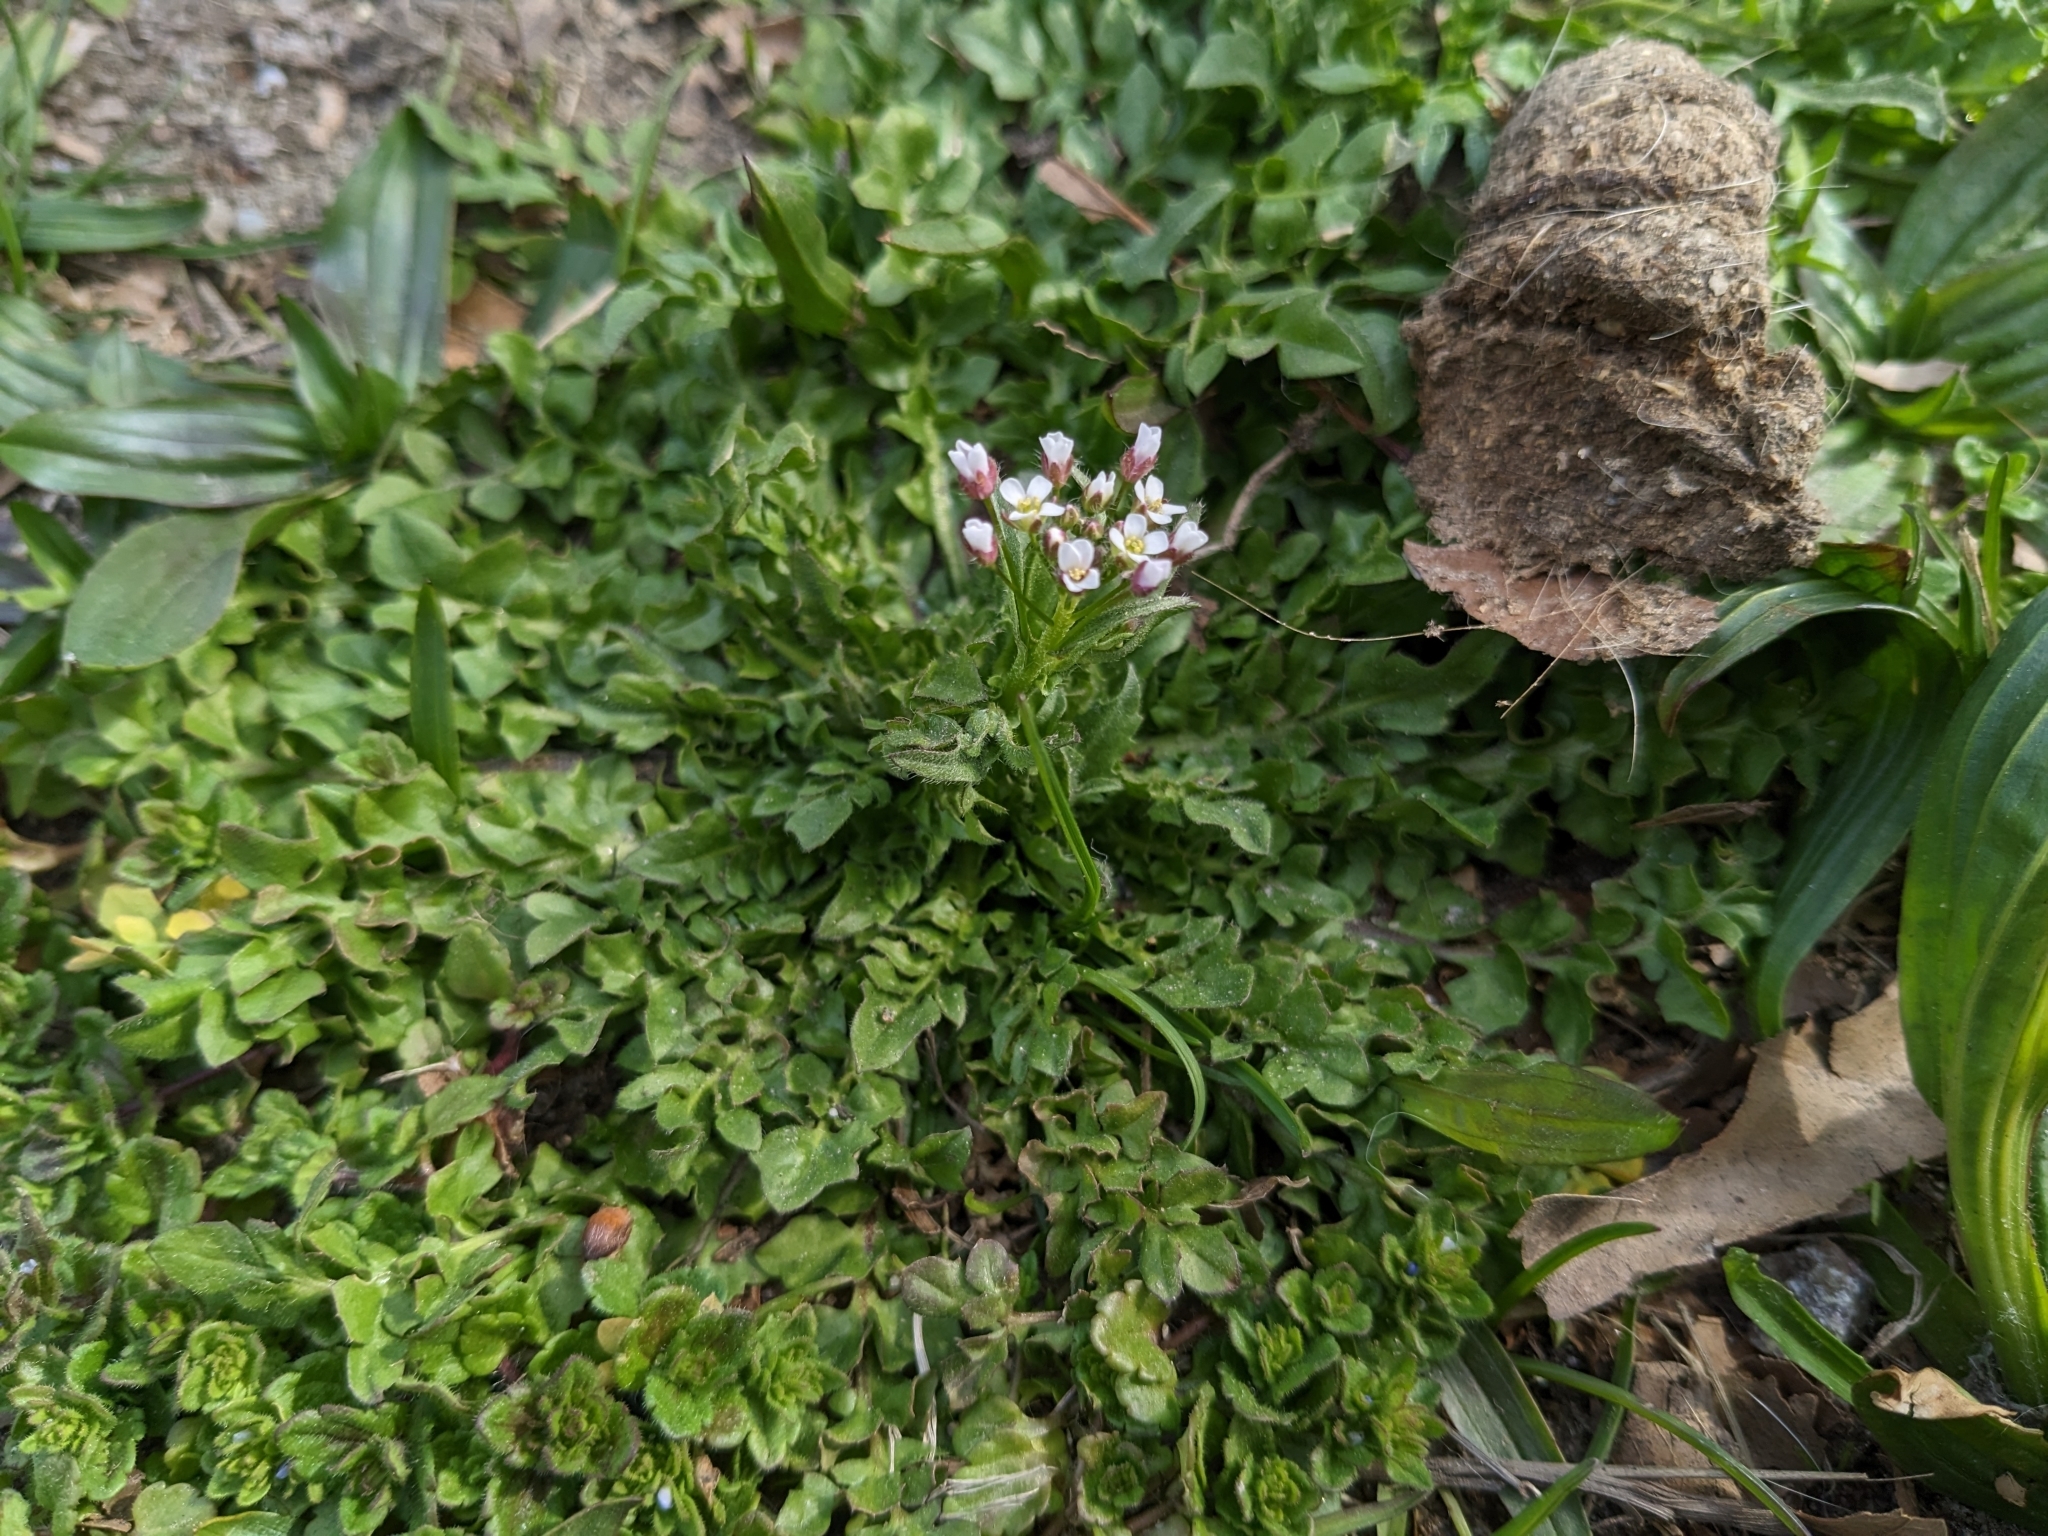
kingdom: Plantae
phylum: Tracheophyta
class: Magnoliopsida
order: Brassicales
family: Brassicaceae
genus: Cardamine
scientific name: Cardamine hirsuta
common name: Hairy bittercress
